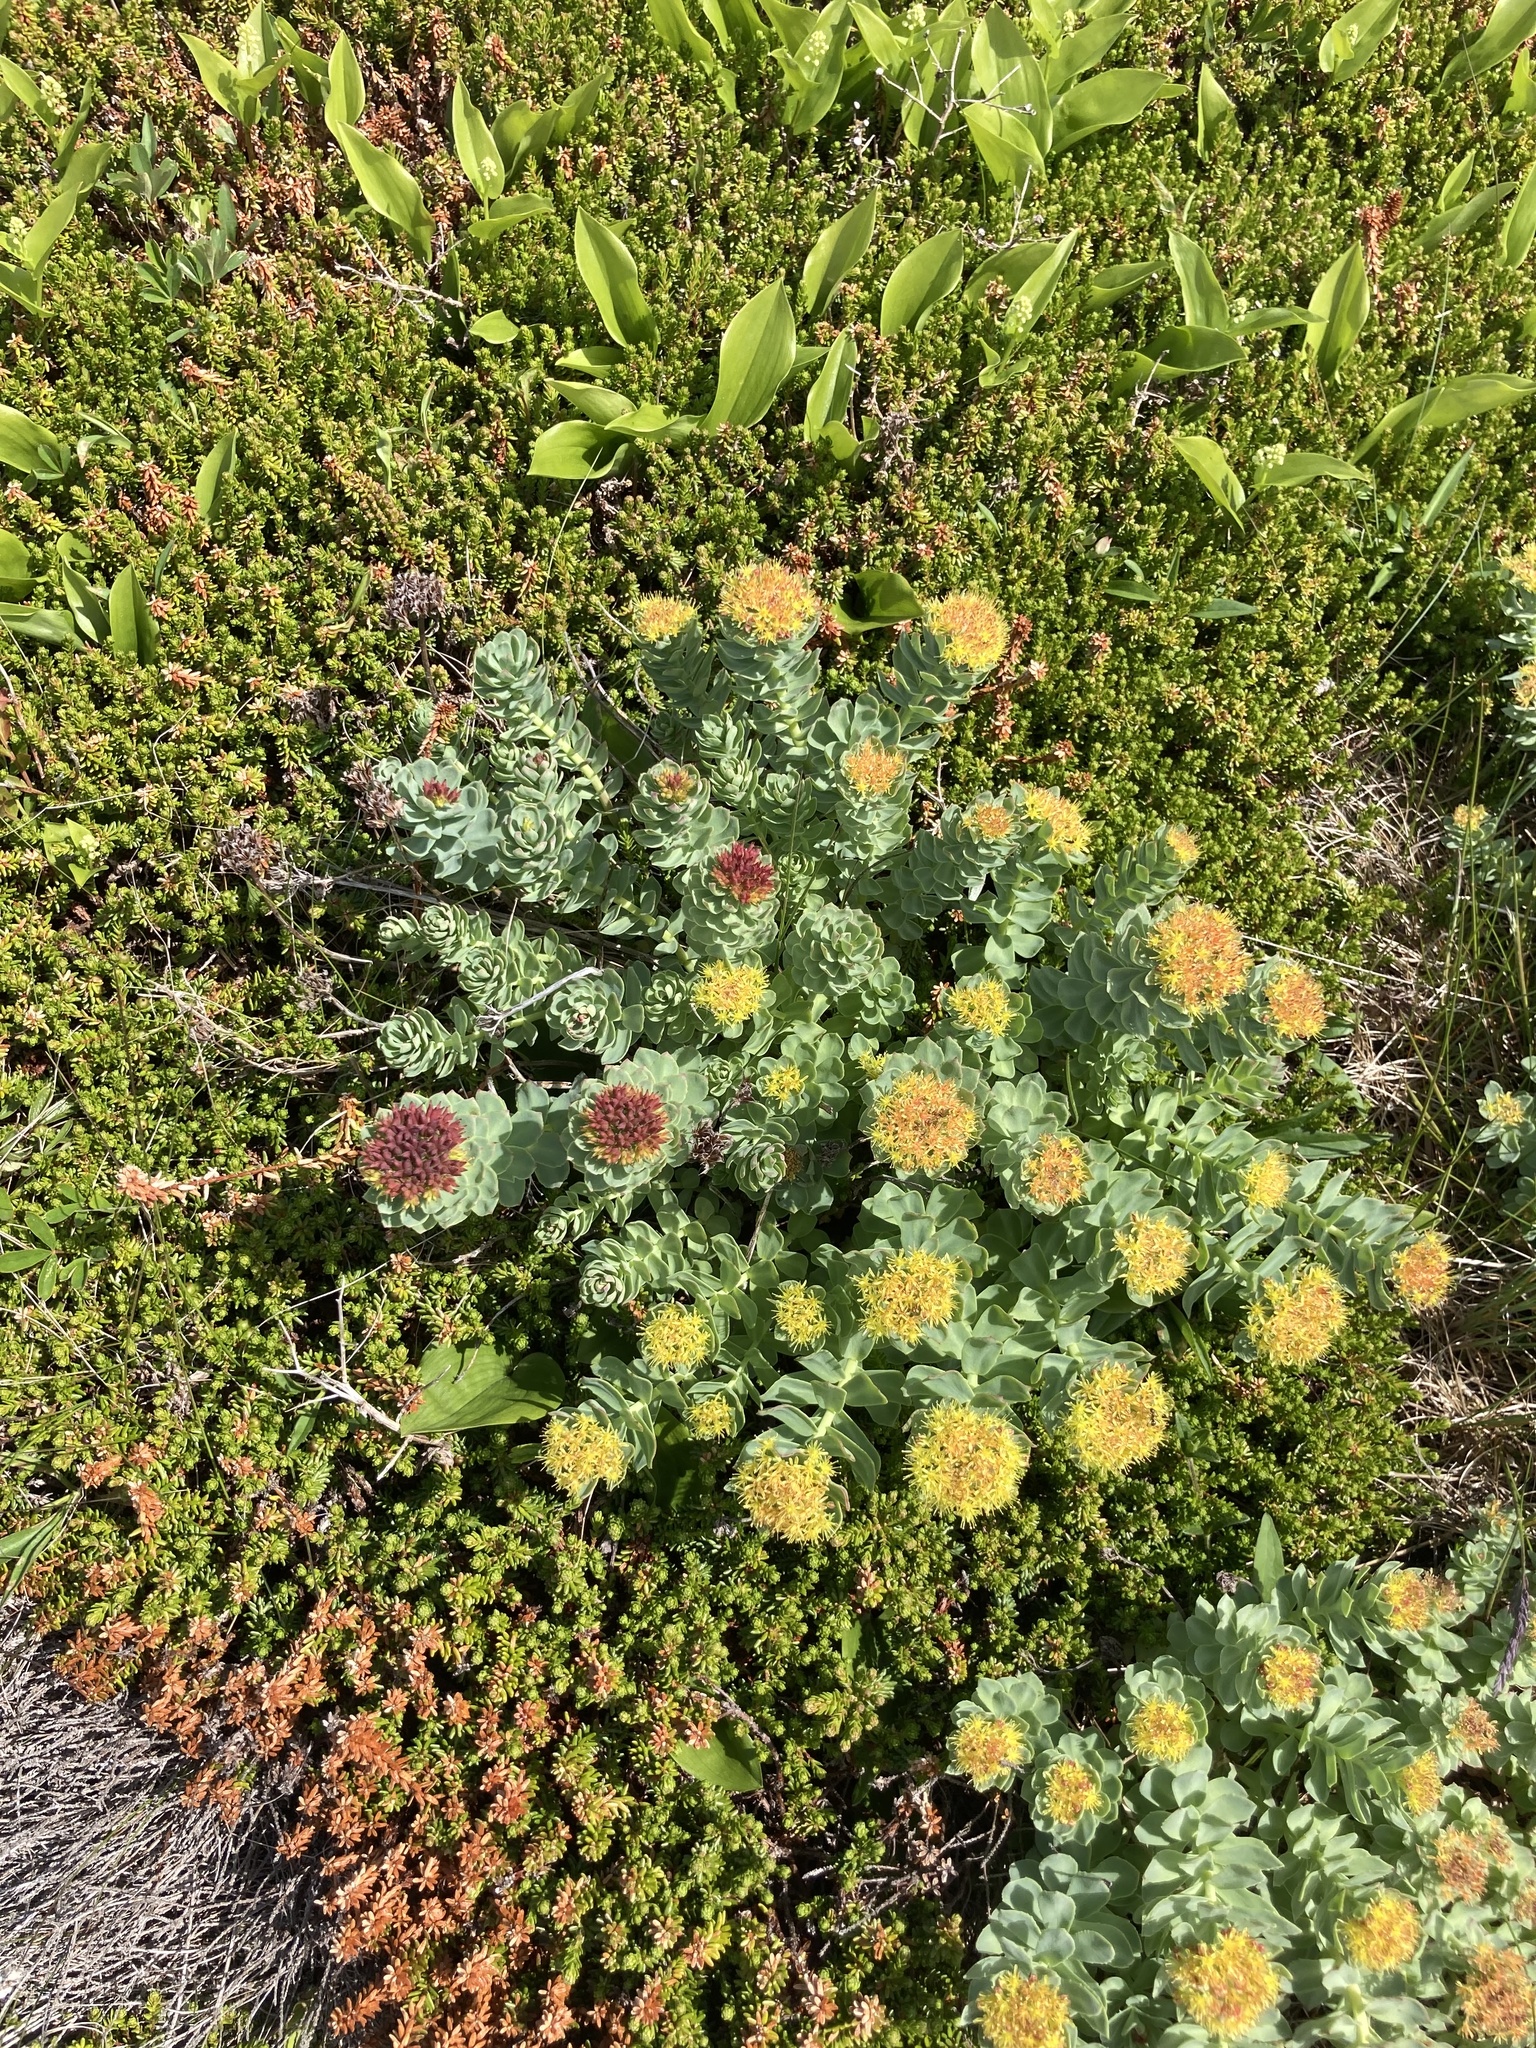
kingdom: Plantae
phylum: Tracheophyta
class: Magnoliopsida
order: Saxifragales
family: Crassulaceae
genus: Rhodiola
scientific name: Rhodiola rosea
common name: Roseroot
